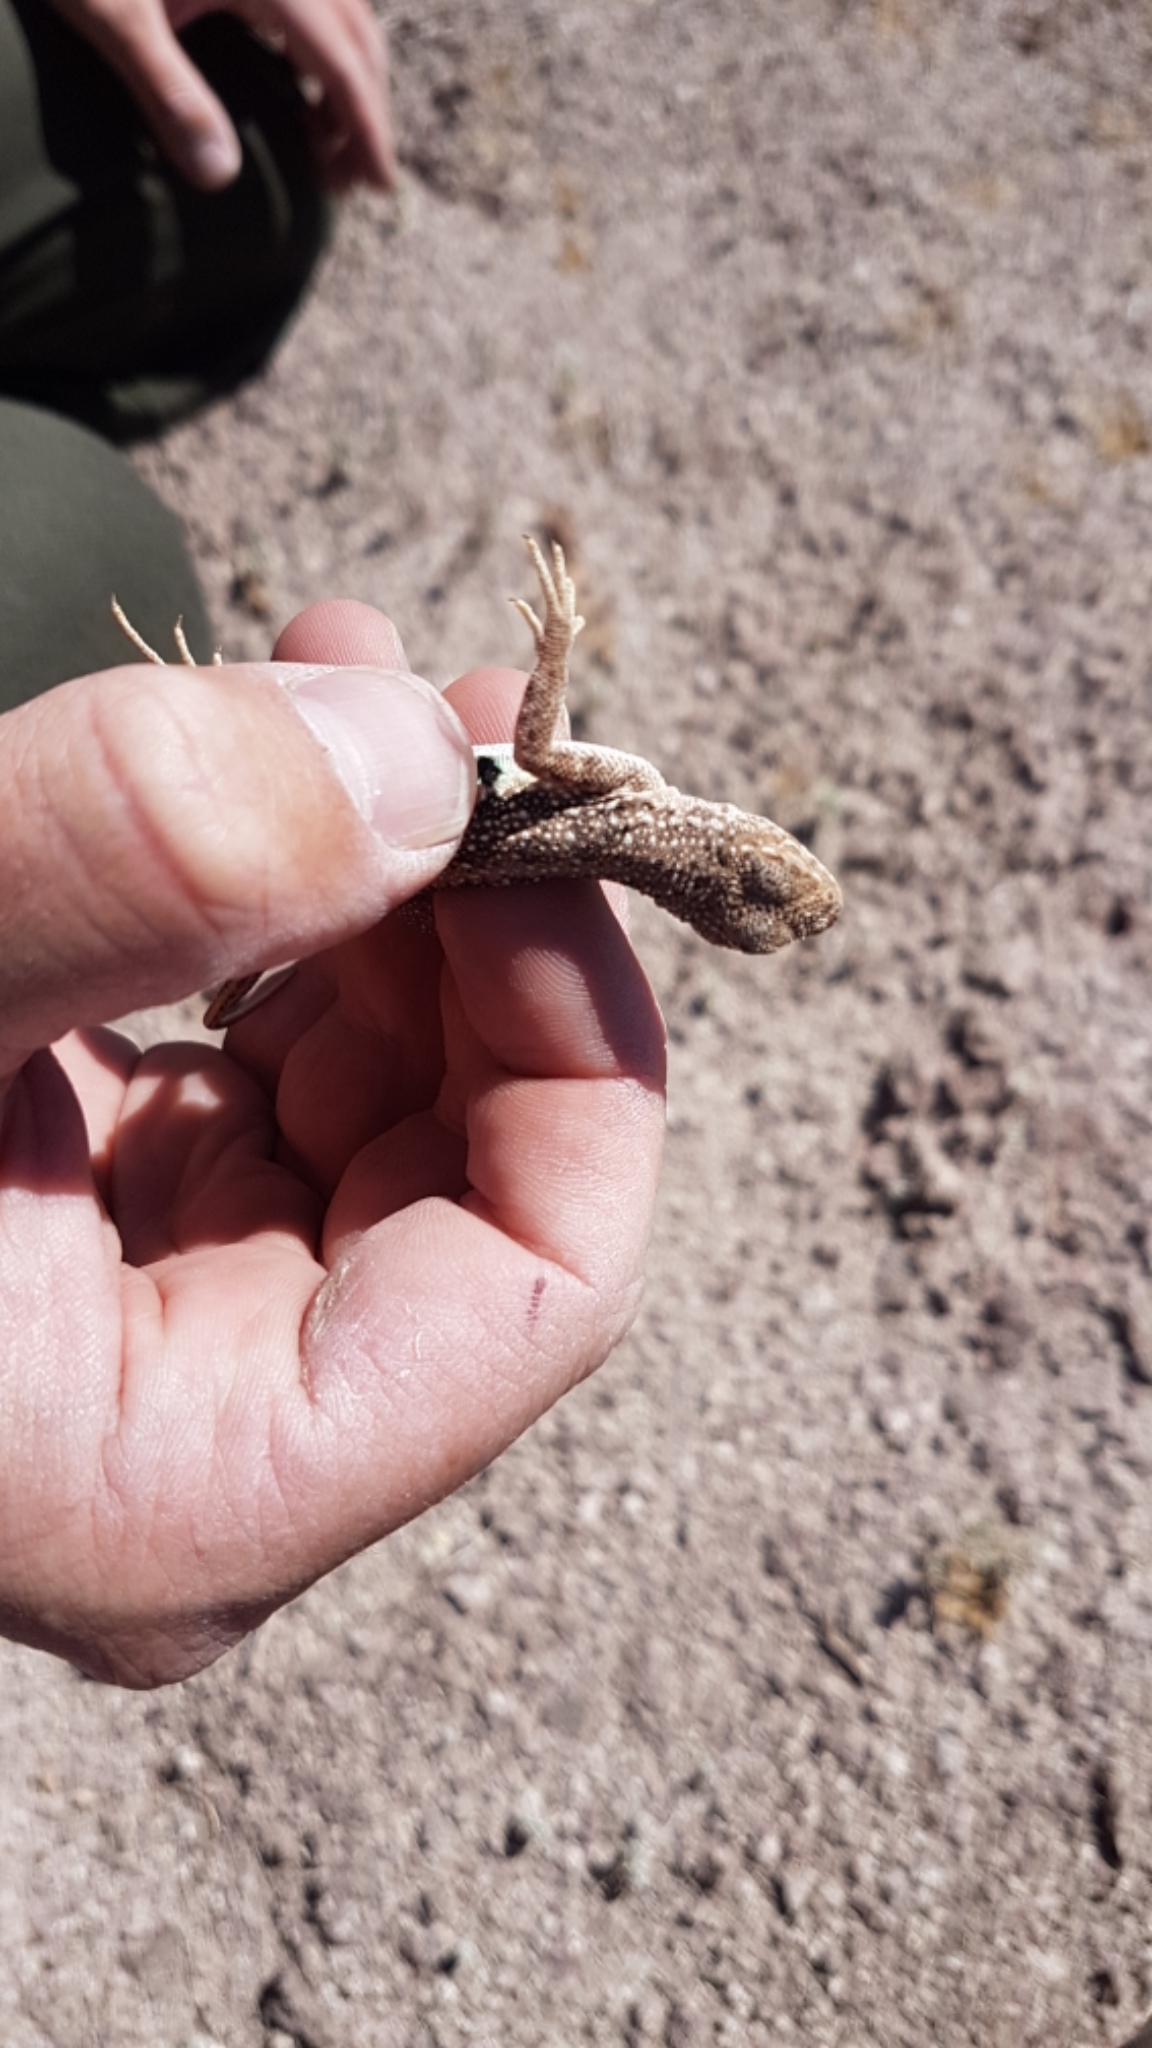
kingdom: Animalia
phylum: Chordata
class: Squamata
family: Phrynosomatidae
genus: Holbrookia
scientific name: Holbrookia maculata
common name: Lesser earless lizard
